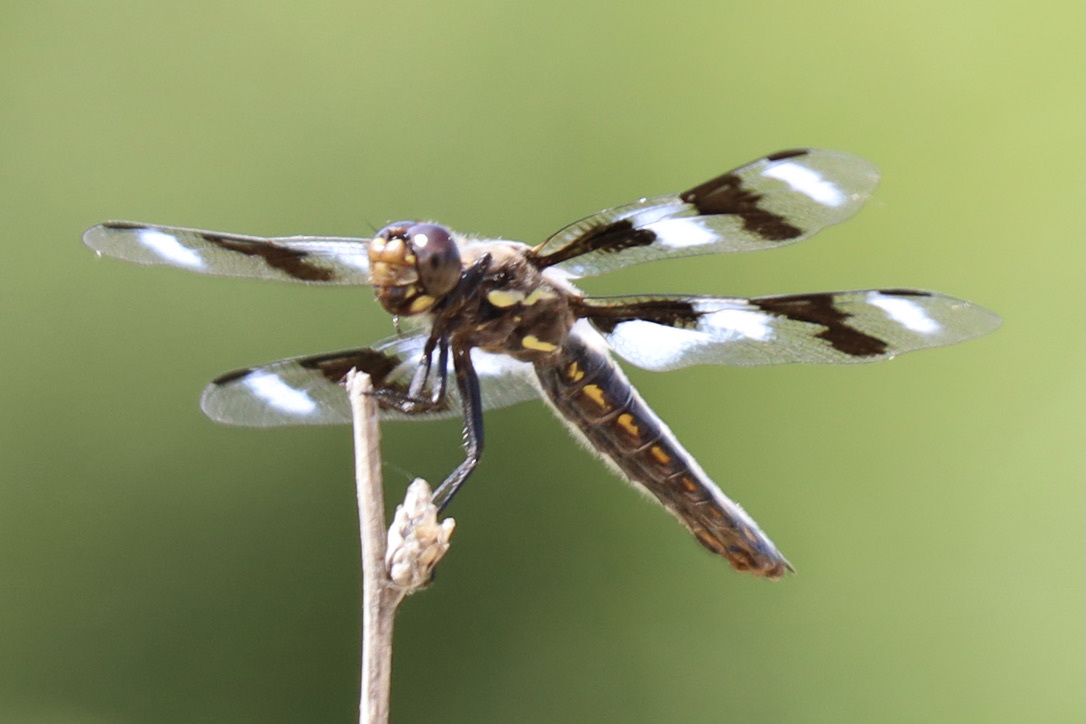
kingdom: Animalia
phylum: Arthropoda
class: Insecta
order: Odonata
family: Libellulidae
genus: Libellula
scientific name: Libellula forensis
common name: Eight-spotted skimmer
